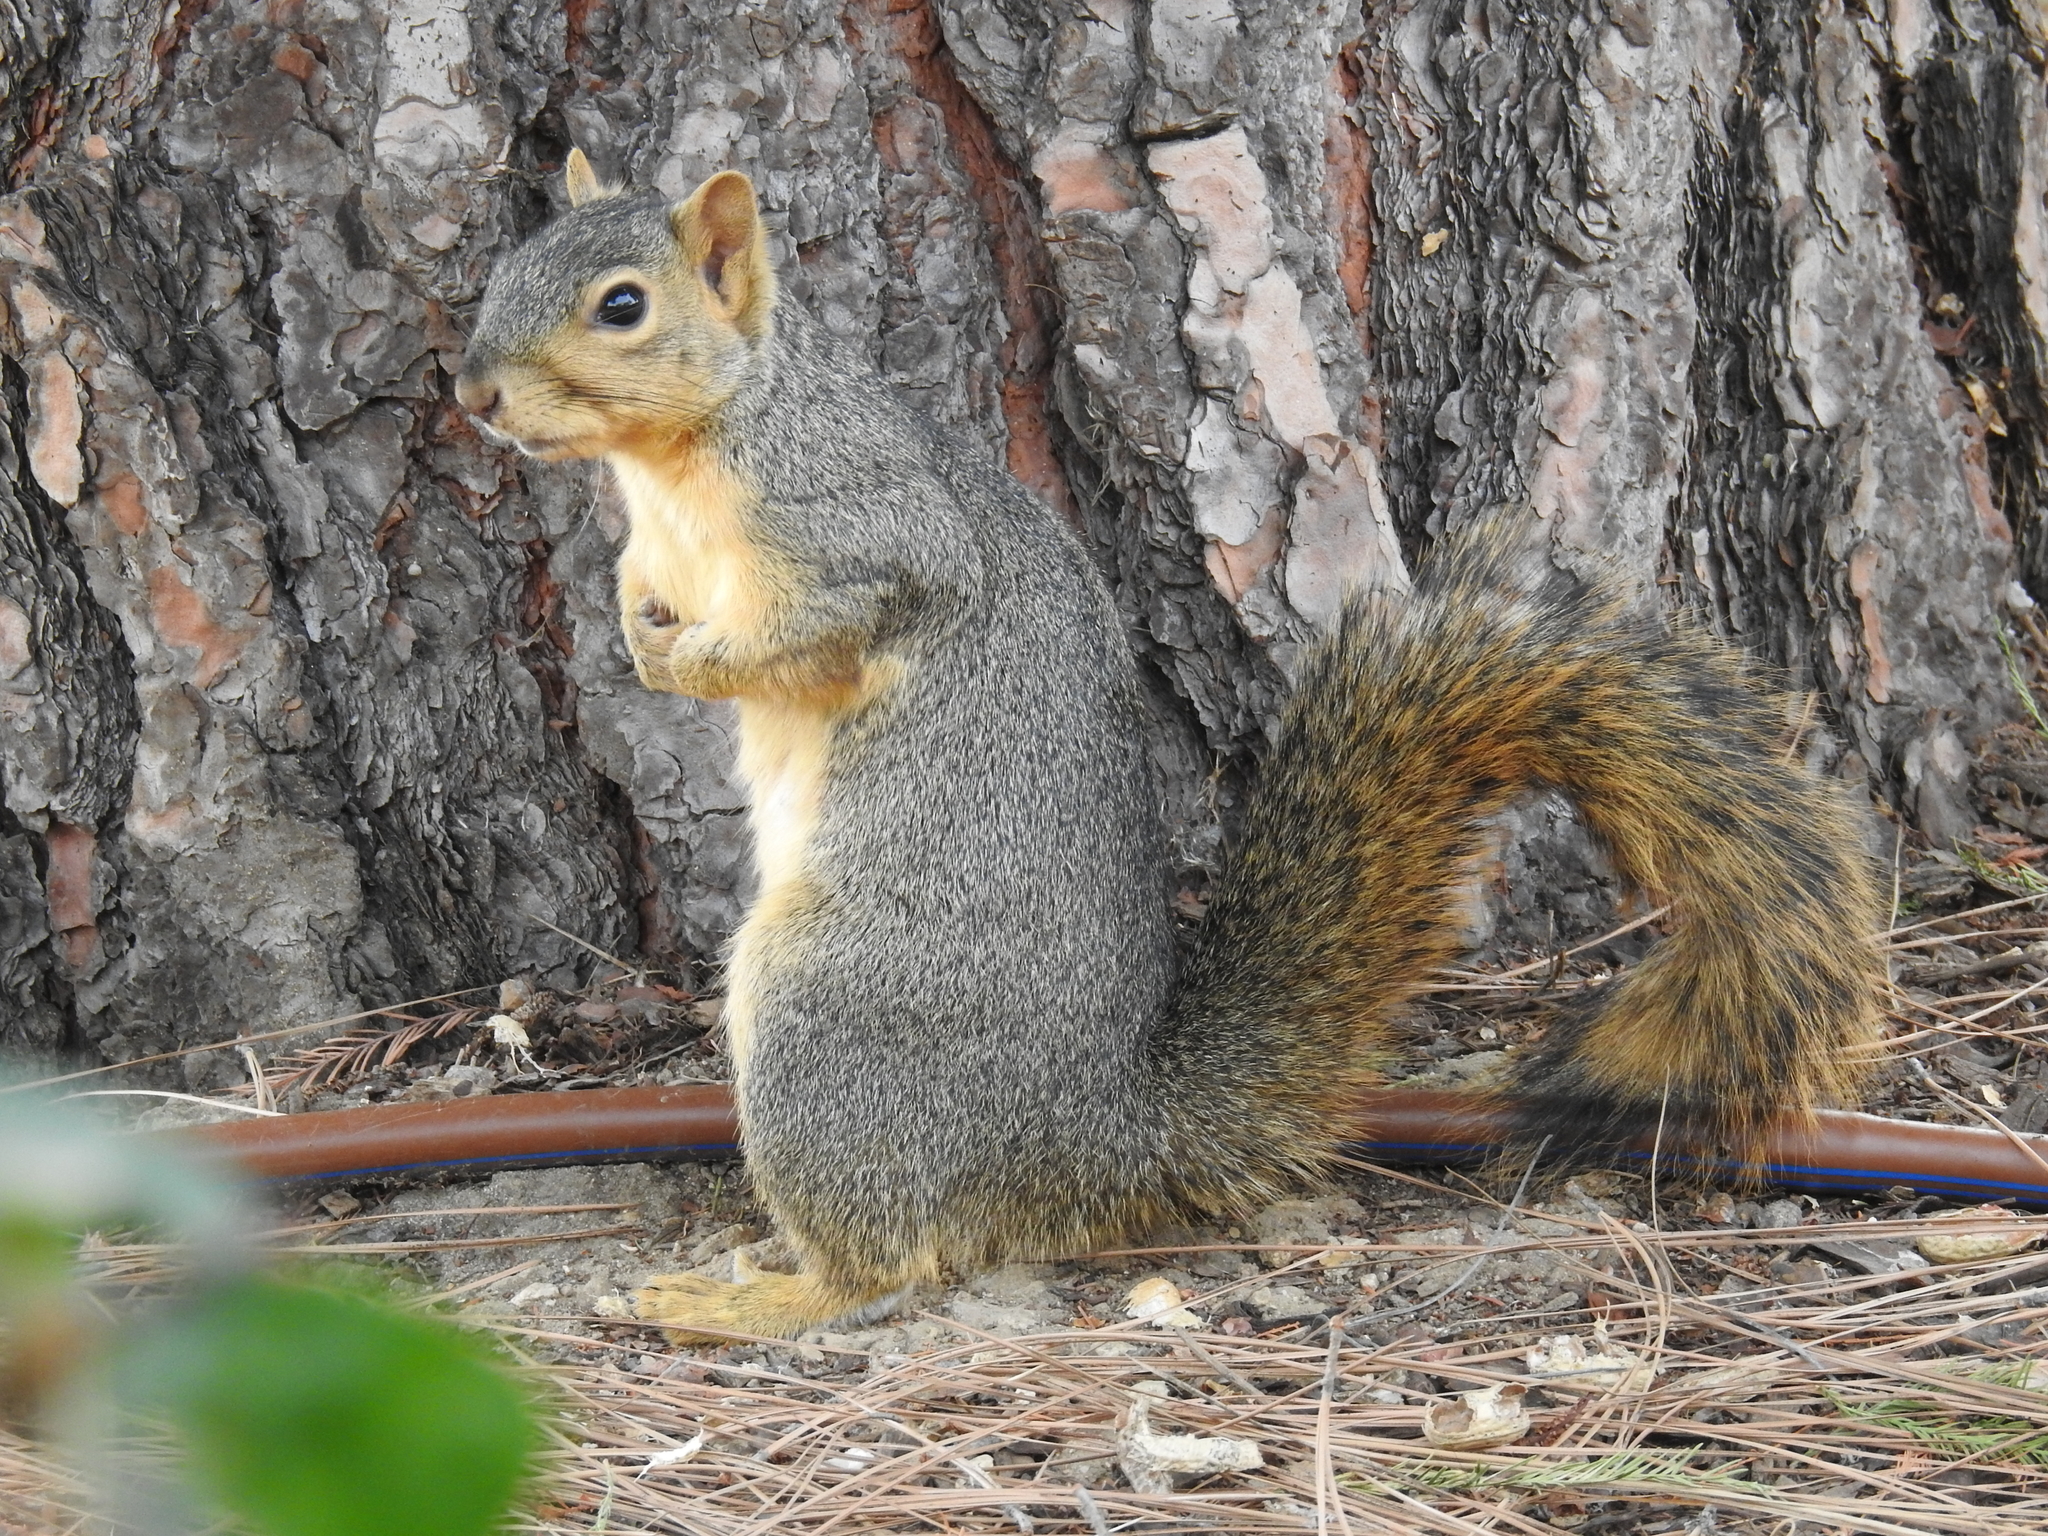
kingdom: Animalia
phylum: Chordata
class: Mammalia
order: Rodentia
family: Sciuridae
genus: Sciurus
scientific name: Sciurus niger
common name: Fox squirrel
